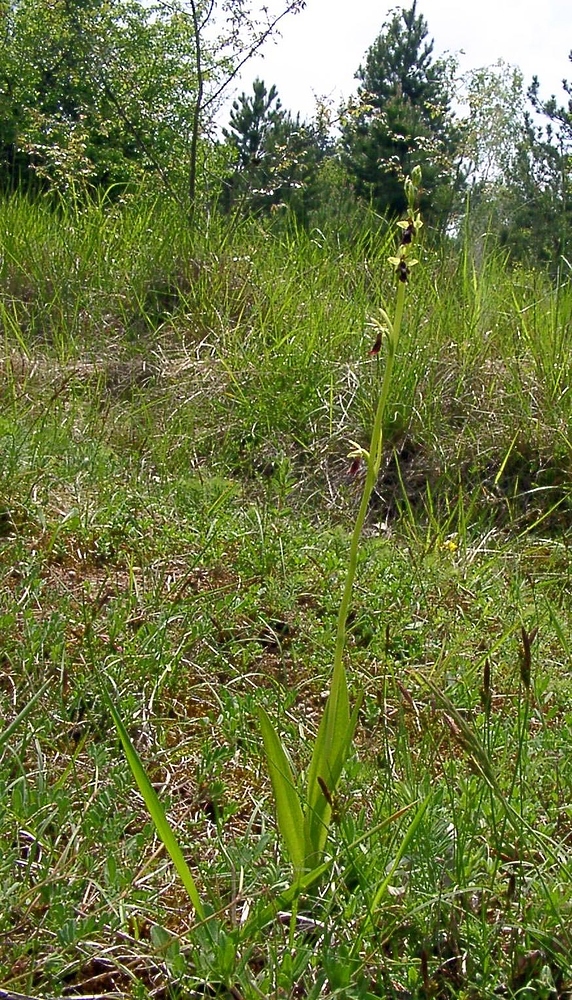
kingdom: Plantae
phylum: Tracheophyta
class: Liliopsida
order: Asparagales
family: Orchidaceae
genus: Ophrys
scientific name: Ophrys insectifera
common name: Fly orchid
